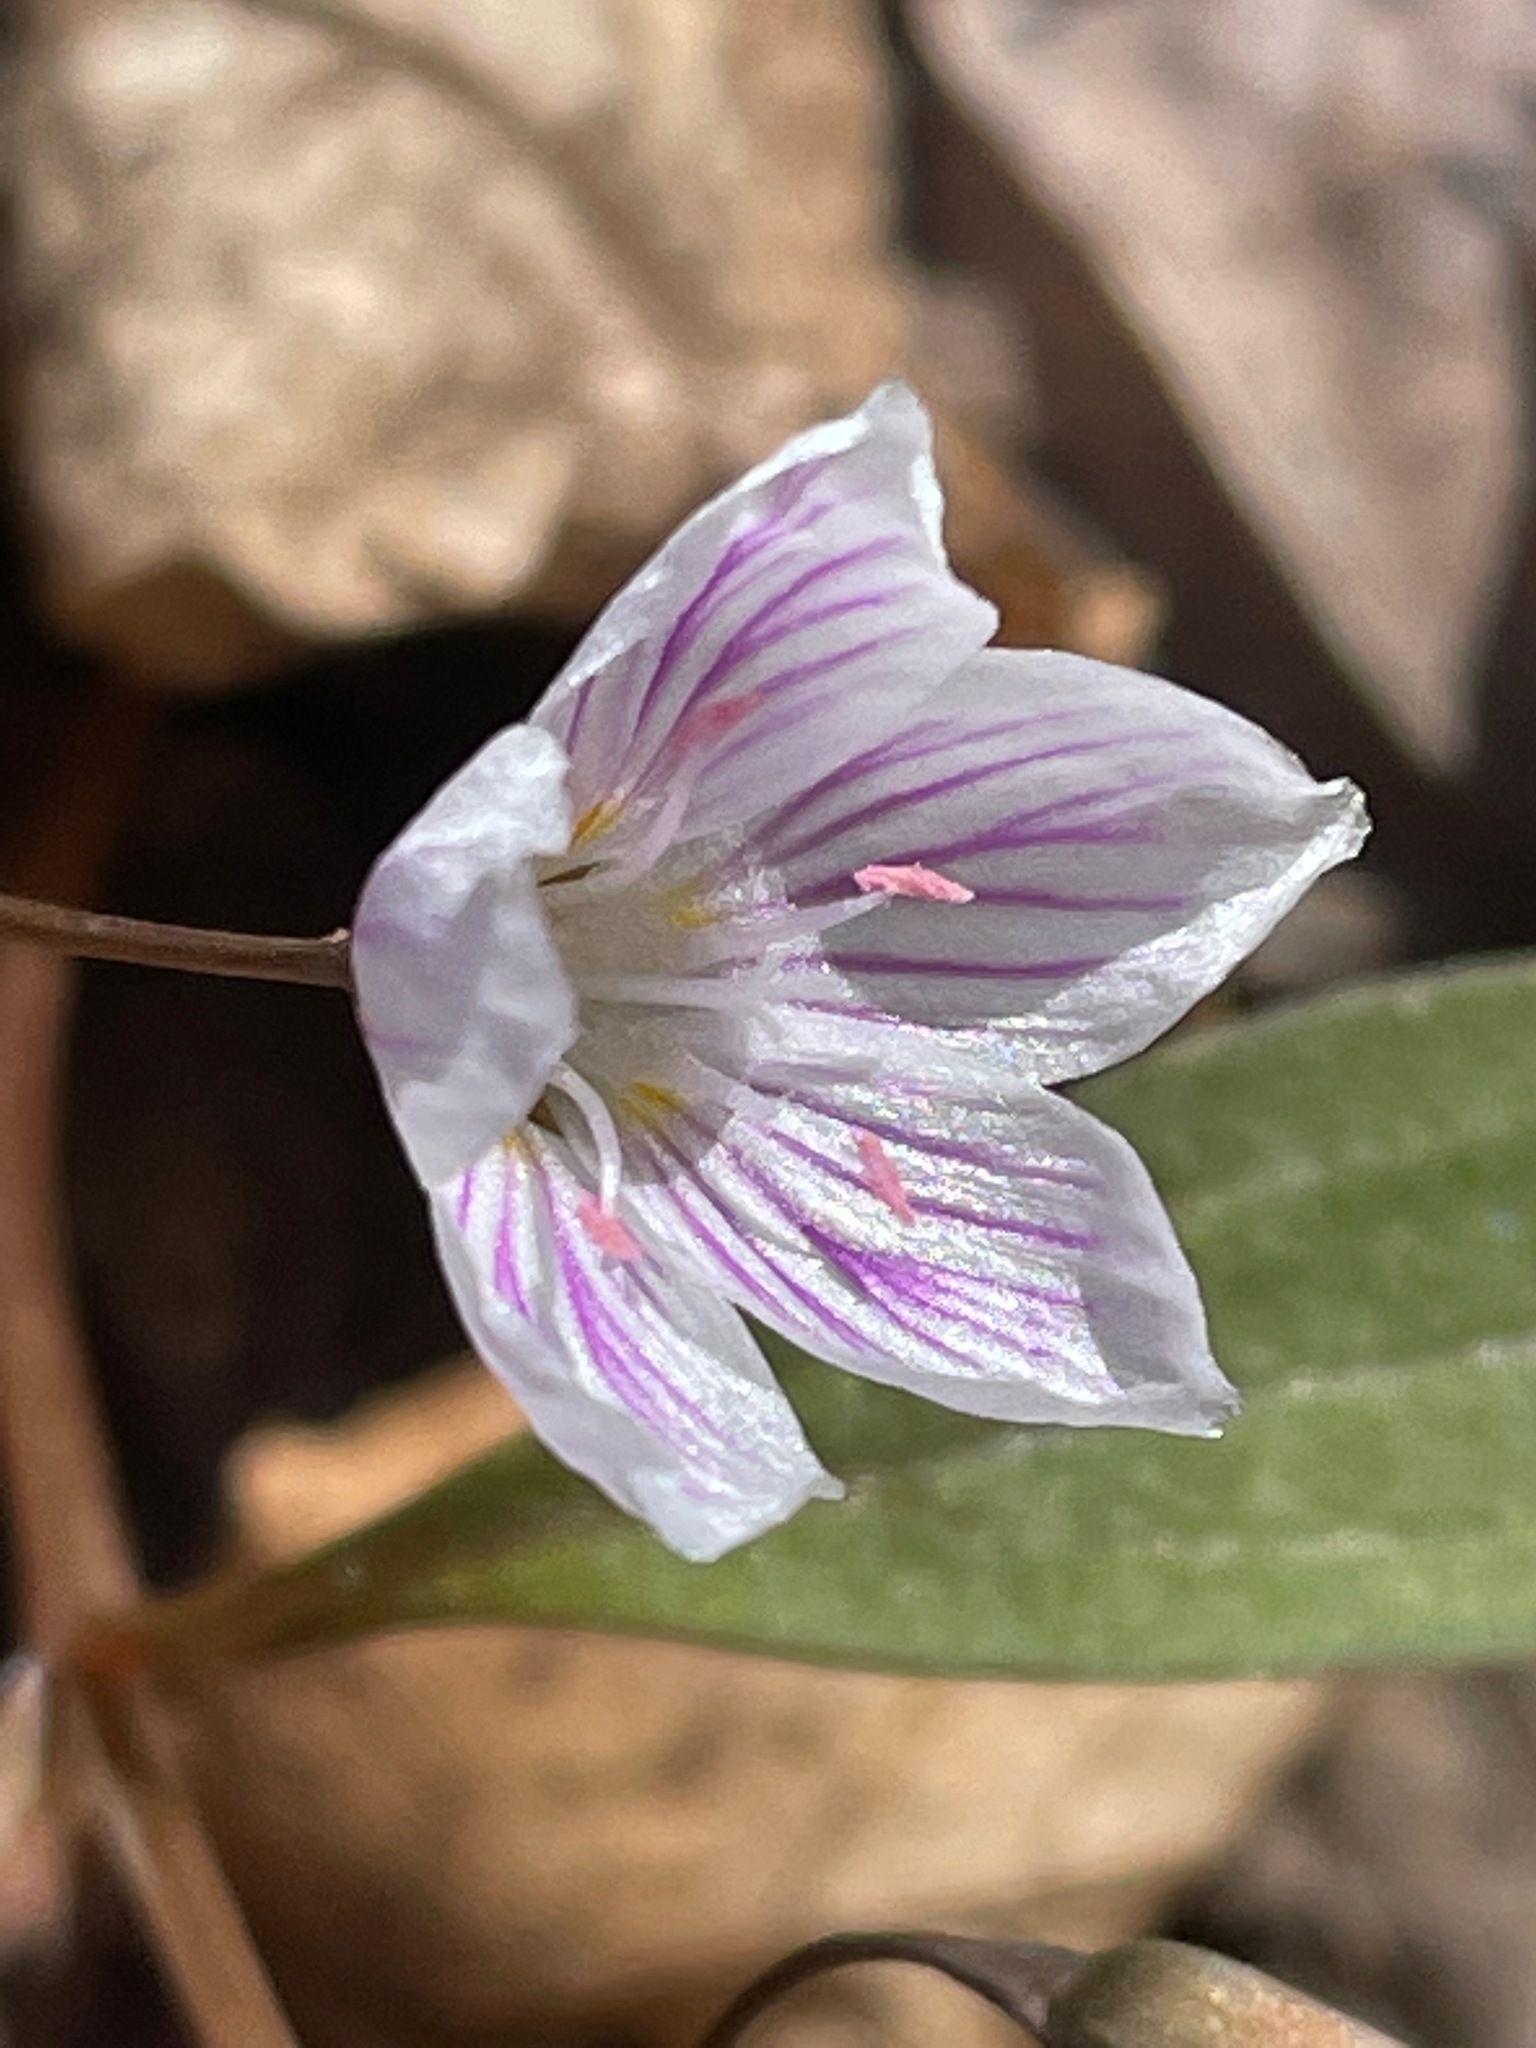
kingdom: Plantae
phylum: Tracheophyta
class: Magnoliopsida
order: Caryophyllales
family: Montiaceae
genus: Claytonia
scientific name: Claytonia caroliniana
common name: Carolina spring beauty
